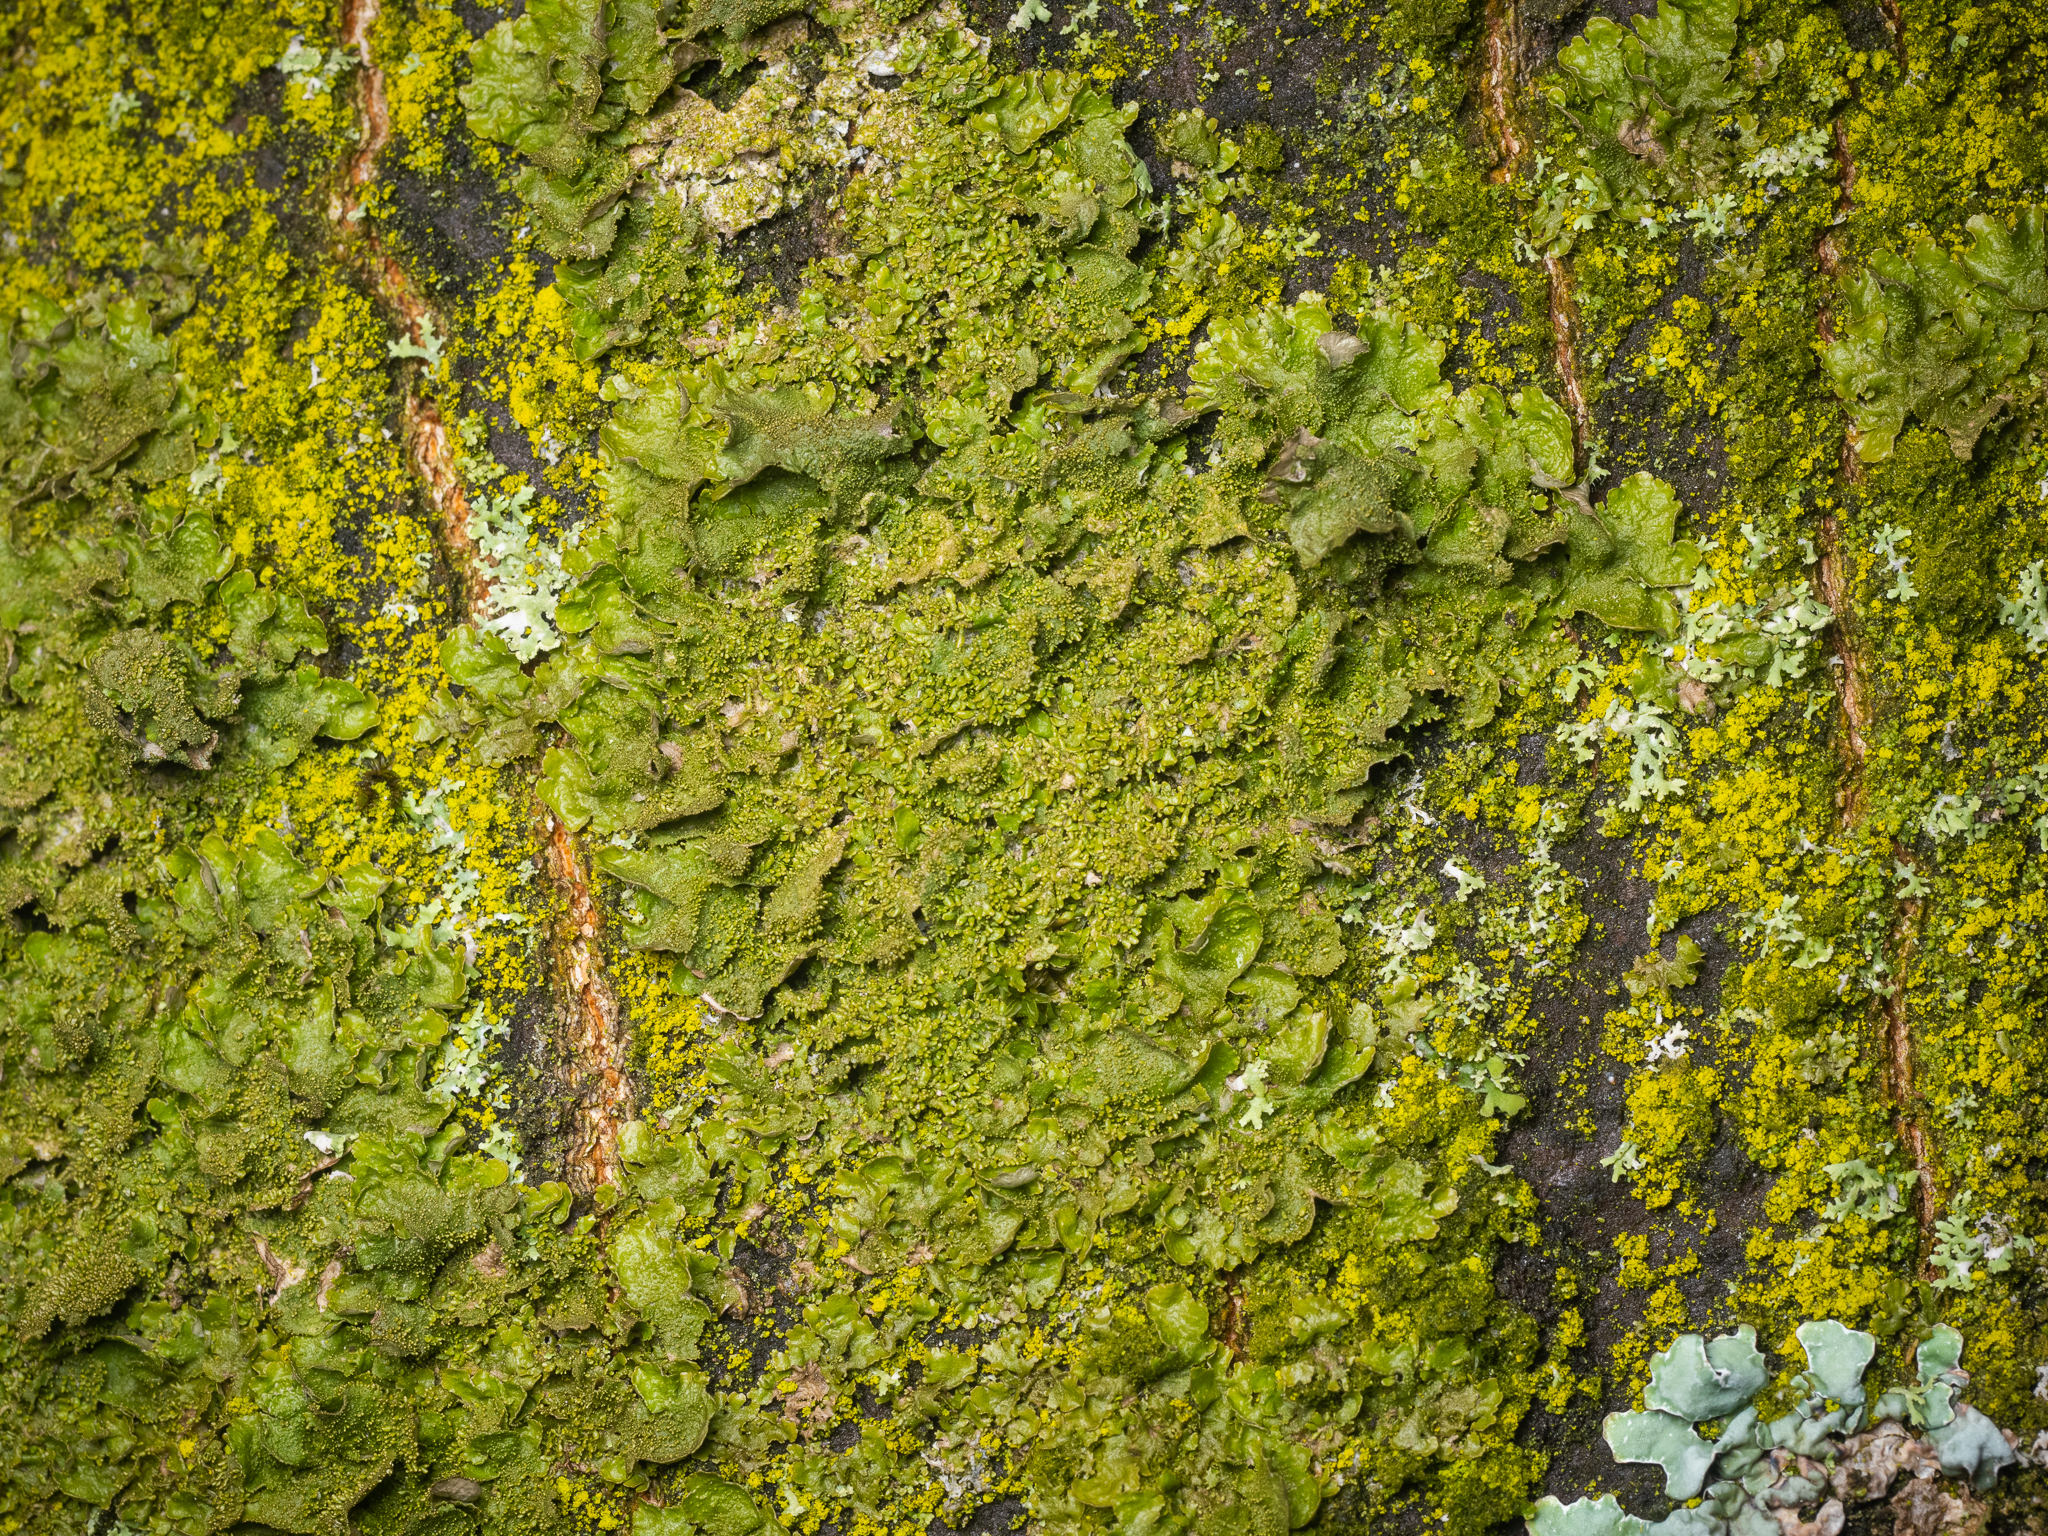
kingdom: Fungi
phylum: Ascomycota
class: Lecanoromycetes
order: Lecanorales
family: Parmeliaceae
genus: Melanohalea
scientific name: Melanohalea exasperatula
